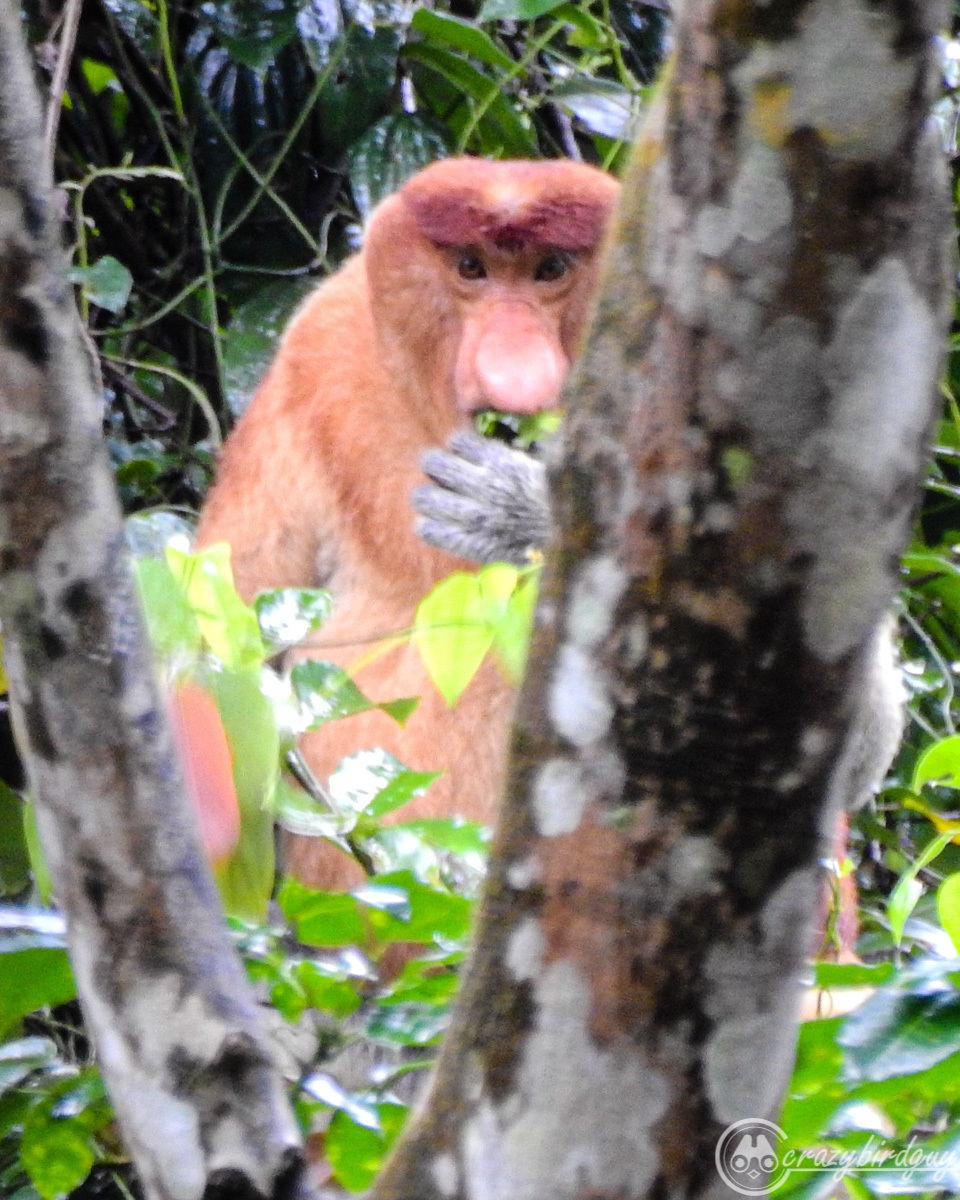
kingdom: Animalia
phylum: Chordata
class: Mammalia
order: Primates
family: Cercopithecidae
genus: Nasalis
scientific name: Nasalis larvatus
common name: Proboscis monkey
